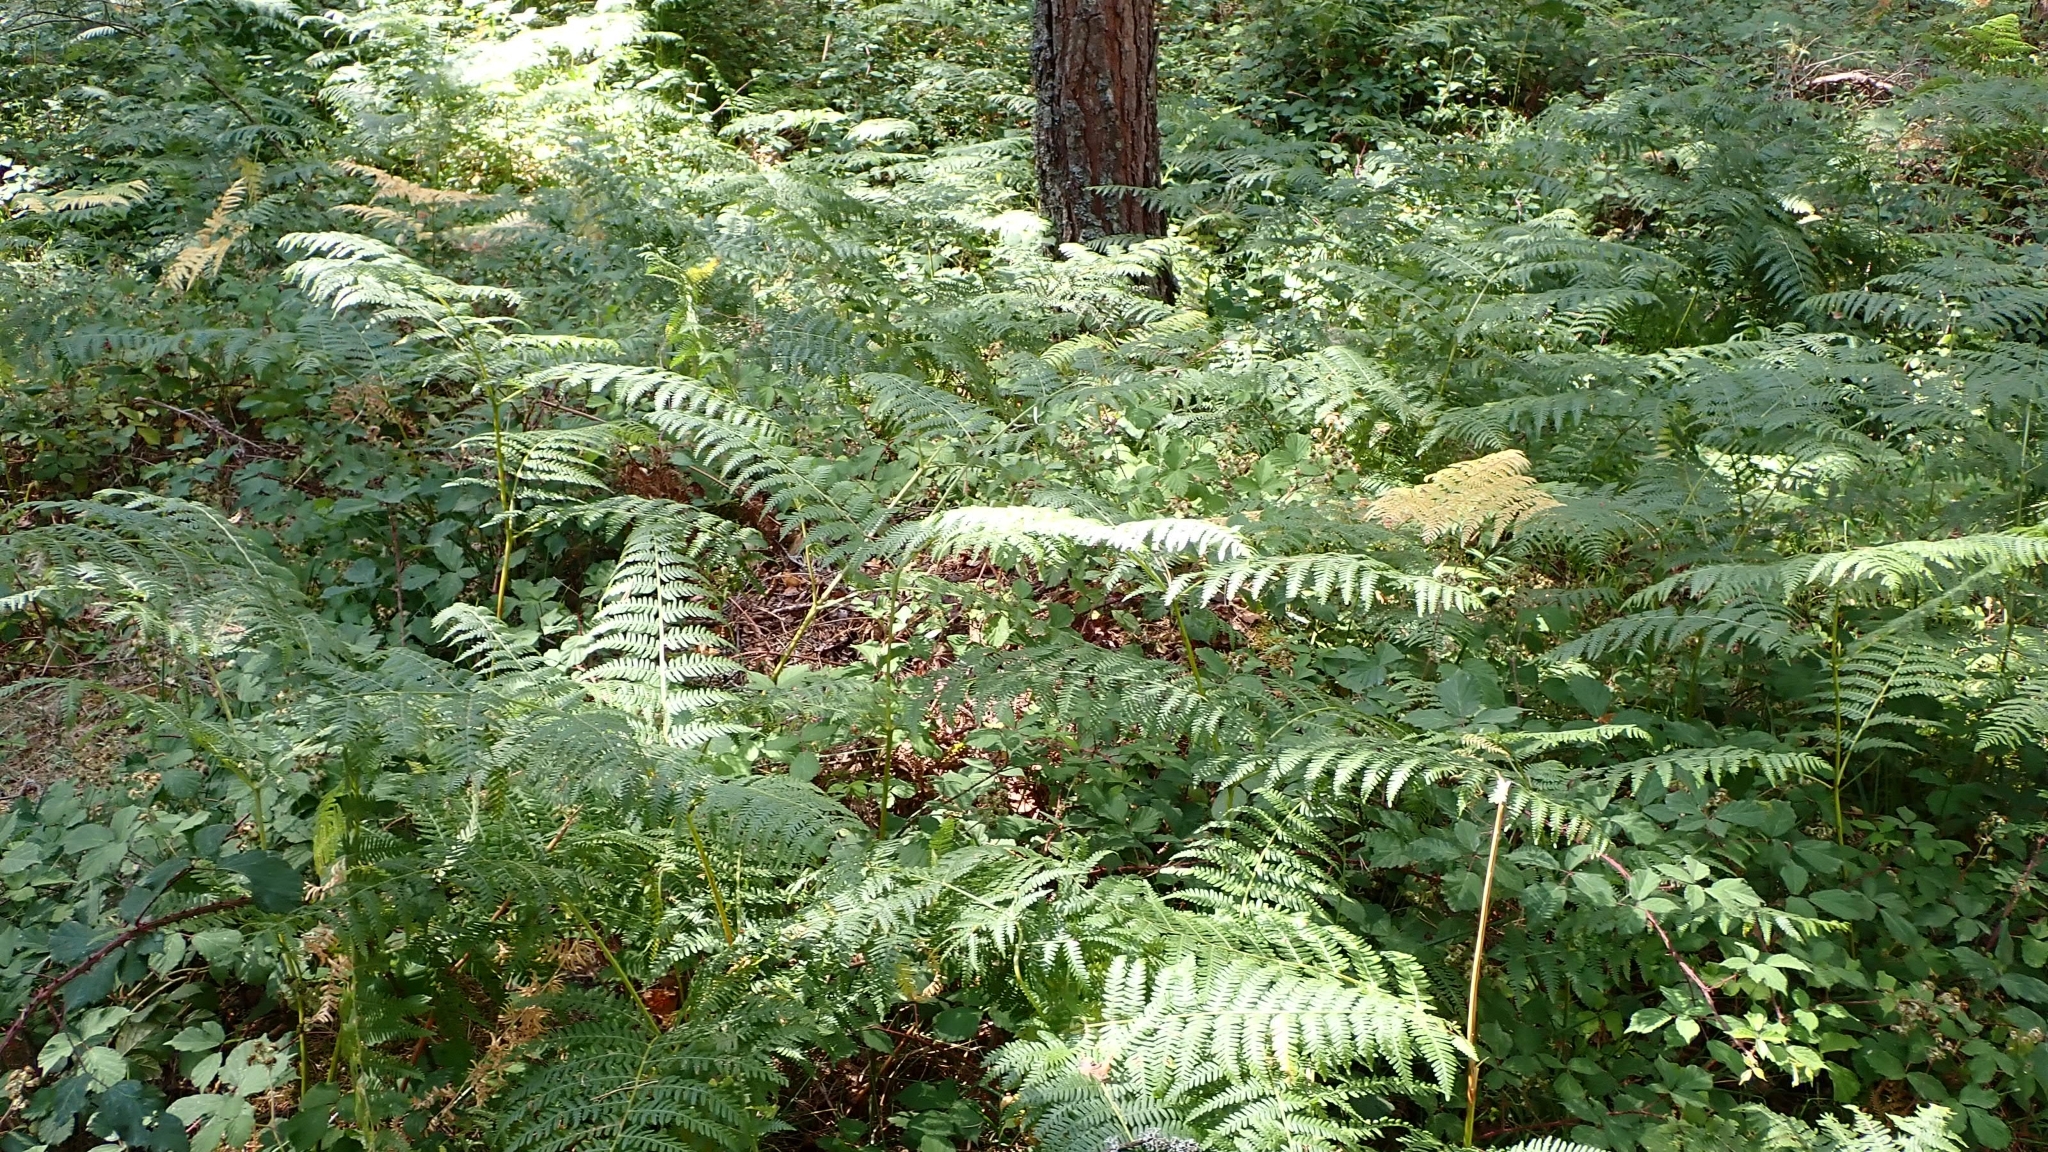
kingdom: Plantae
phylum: Tracheophyta
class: Polypodiopsida
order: Polypodiales
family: Dennstaedtiaceae
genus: Pteridium
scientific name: Pteridium aquilinum
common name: Bracken
